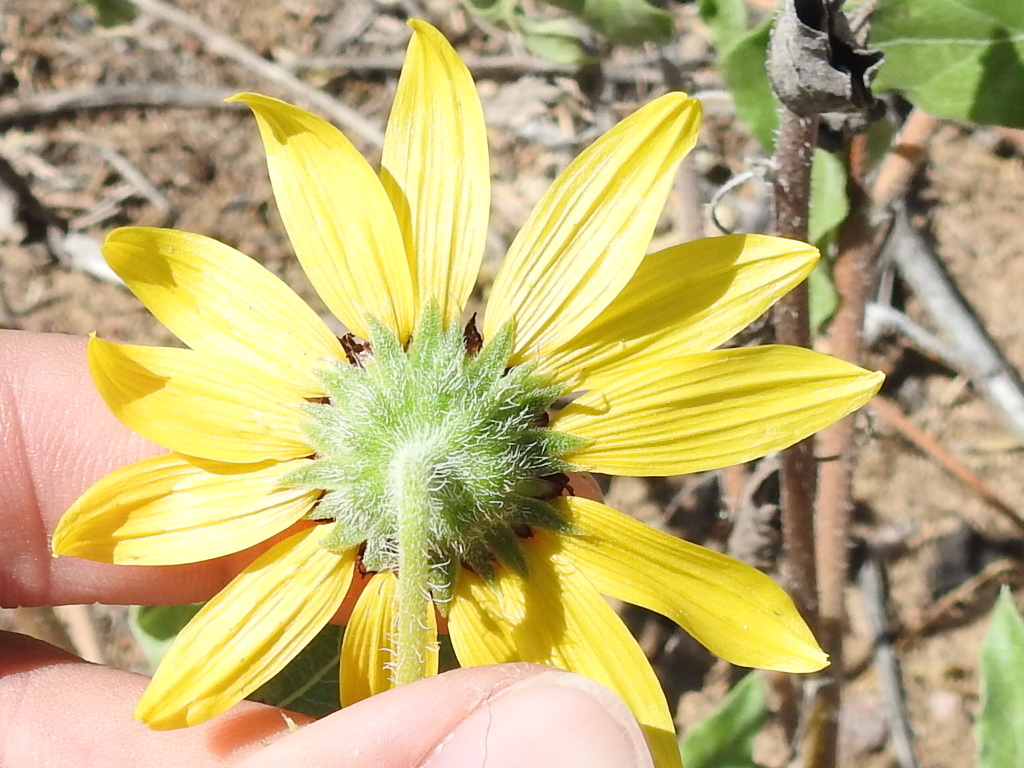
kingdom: Plantae
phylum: Tracheophyta
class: Magnoliopsida
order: Asterales
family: Asteraceae
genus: Helianthus
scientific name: Helianthus petiolaris
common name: Lesser sunflower
